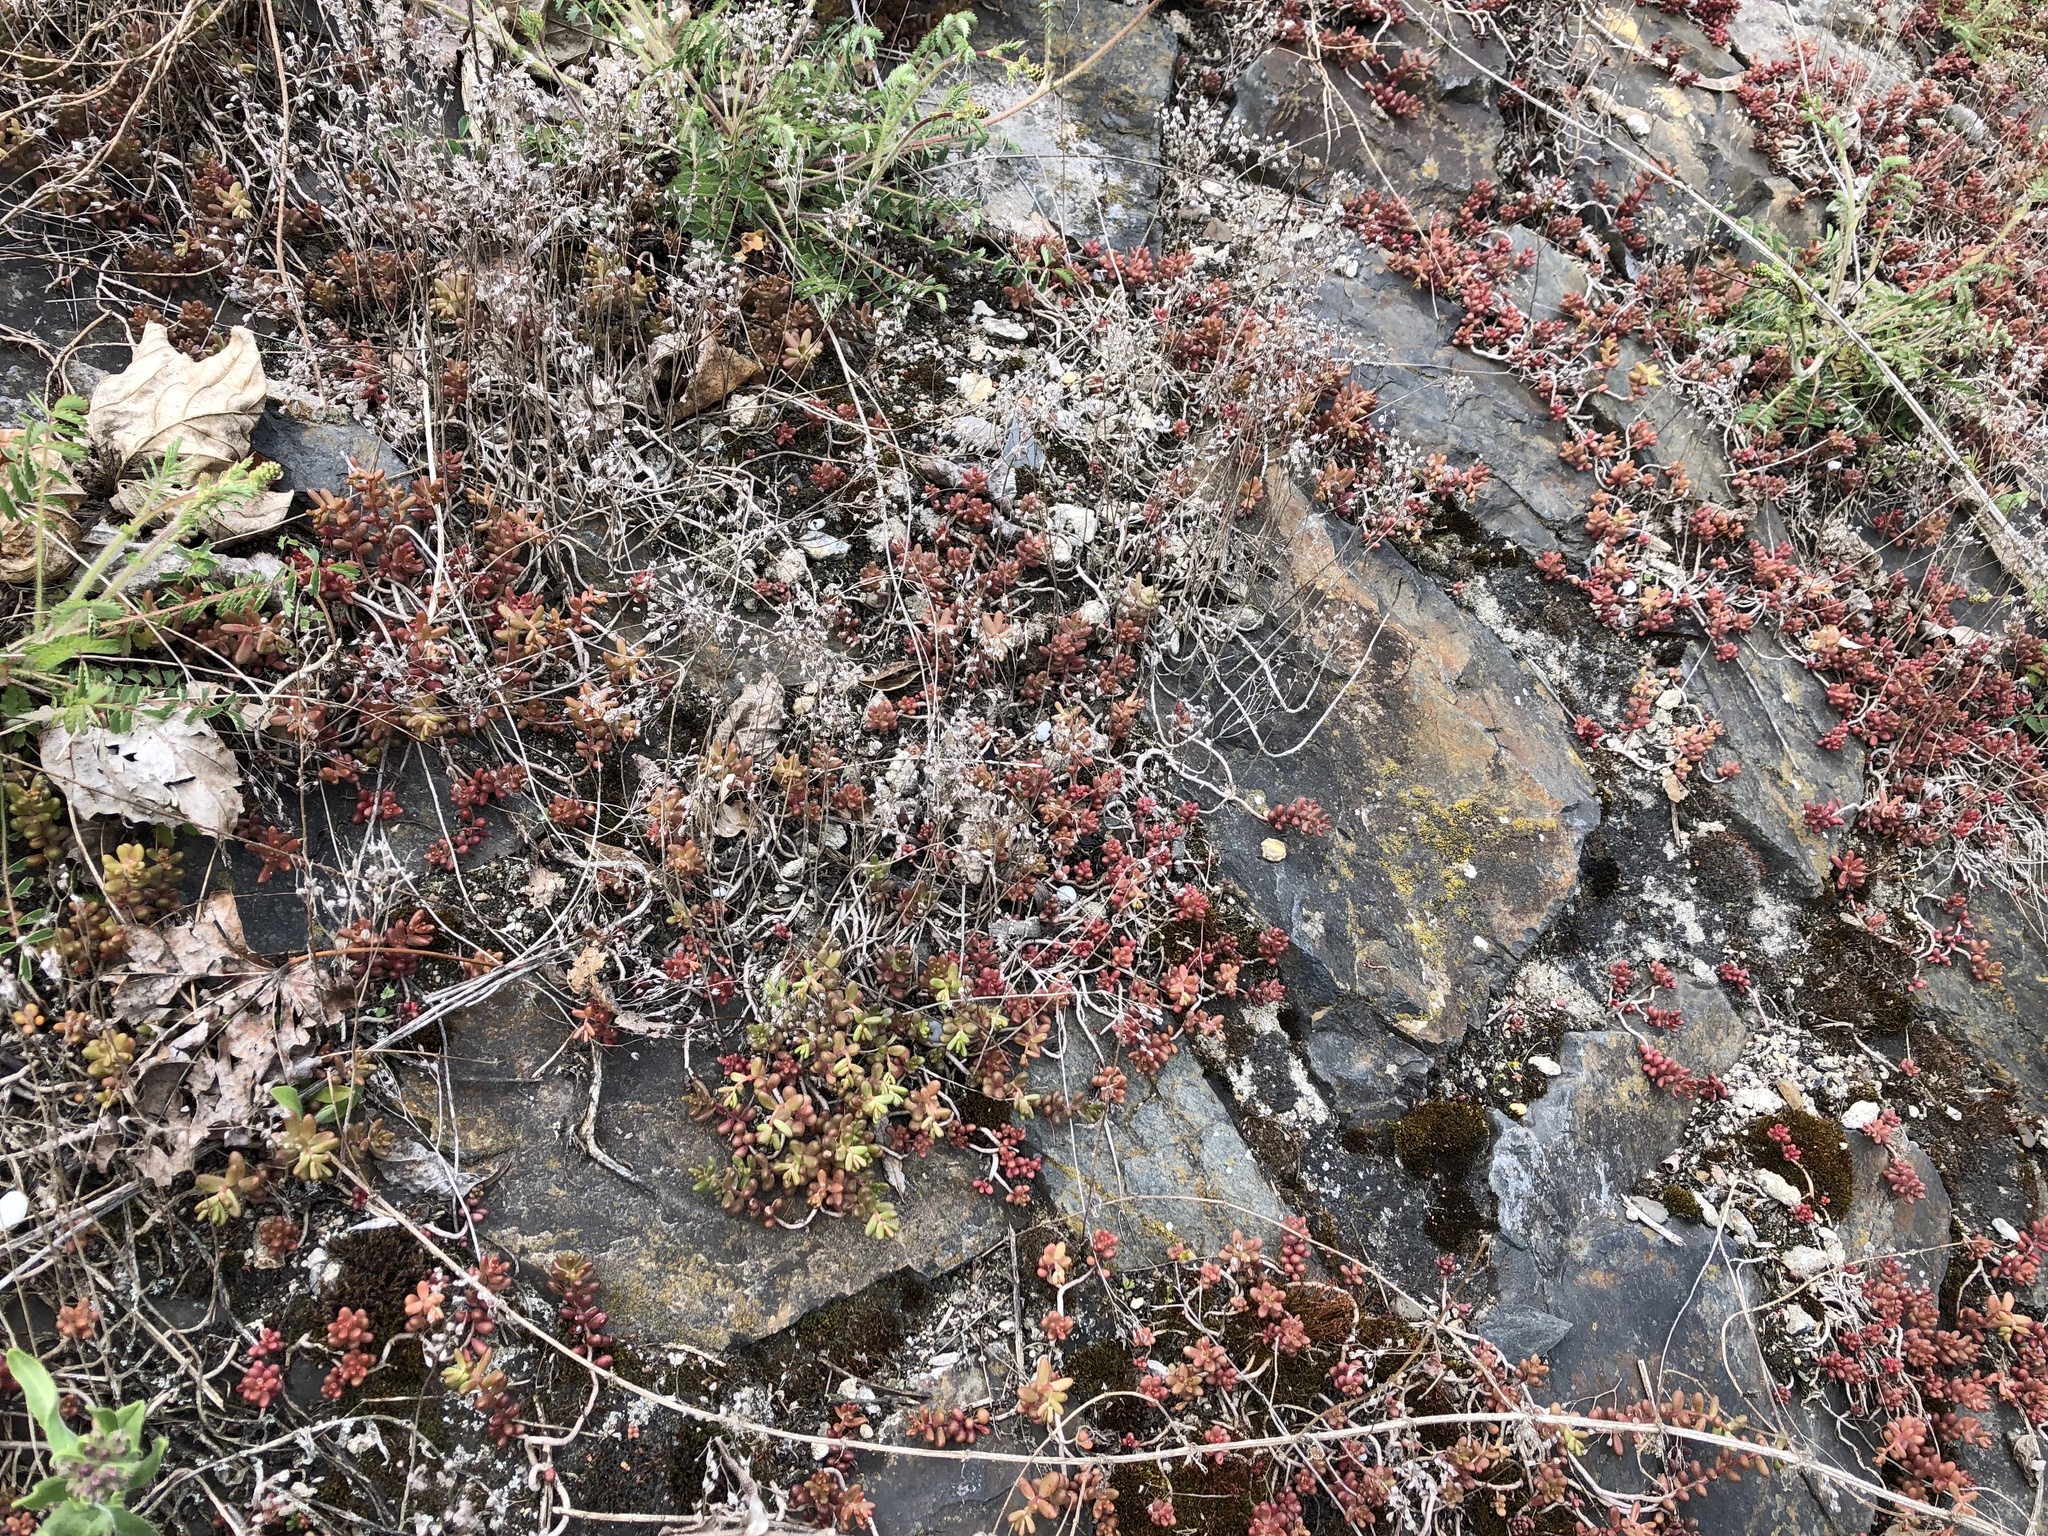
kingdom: Plantae
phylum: Tracheophyta
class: Magnoliopsida
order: Saxifragales
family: Crassulaceae
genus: Sedum
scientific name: Sedum album
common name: White stonecrop
